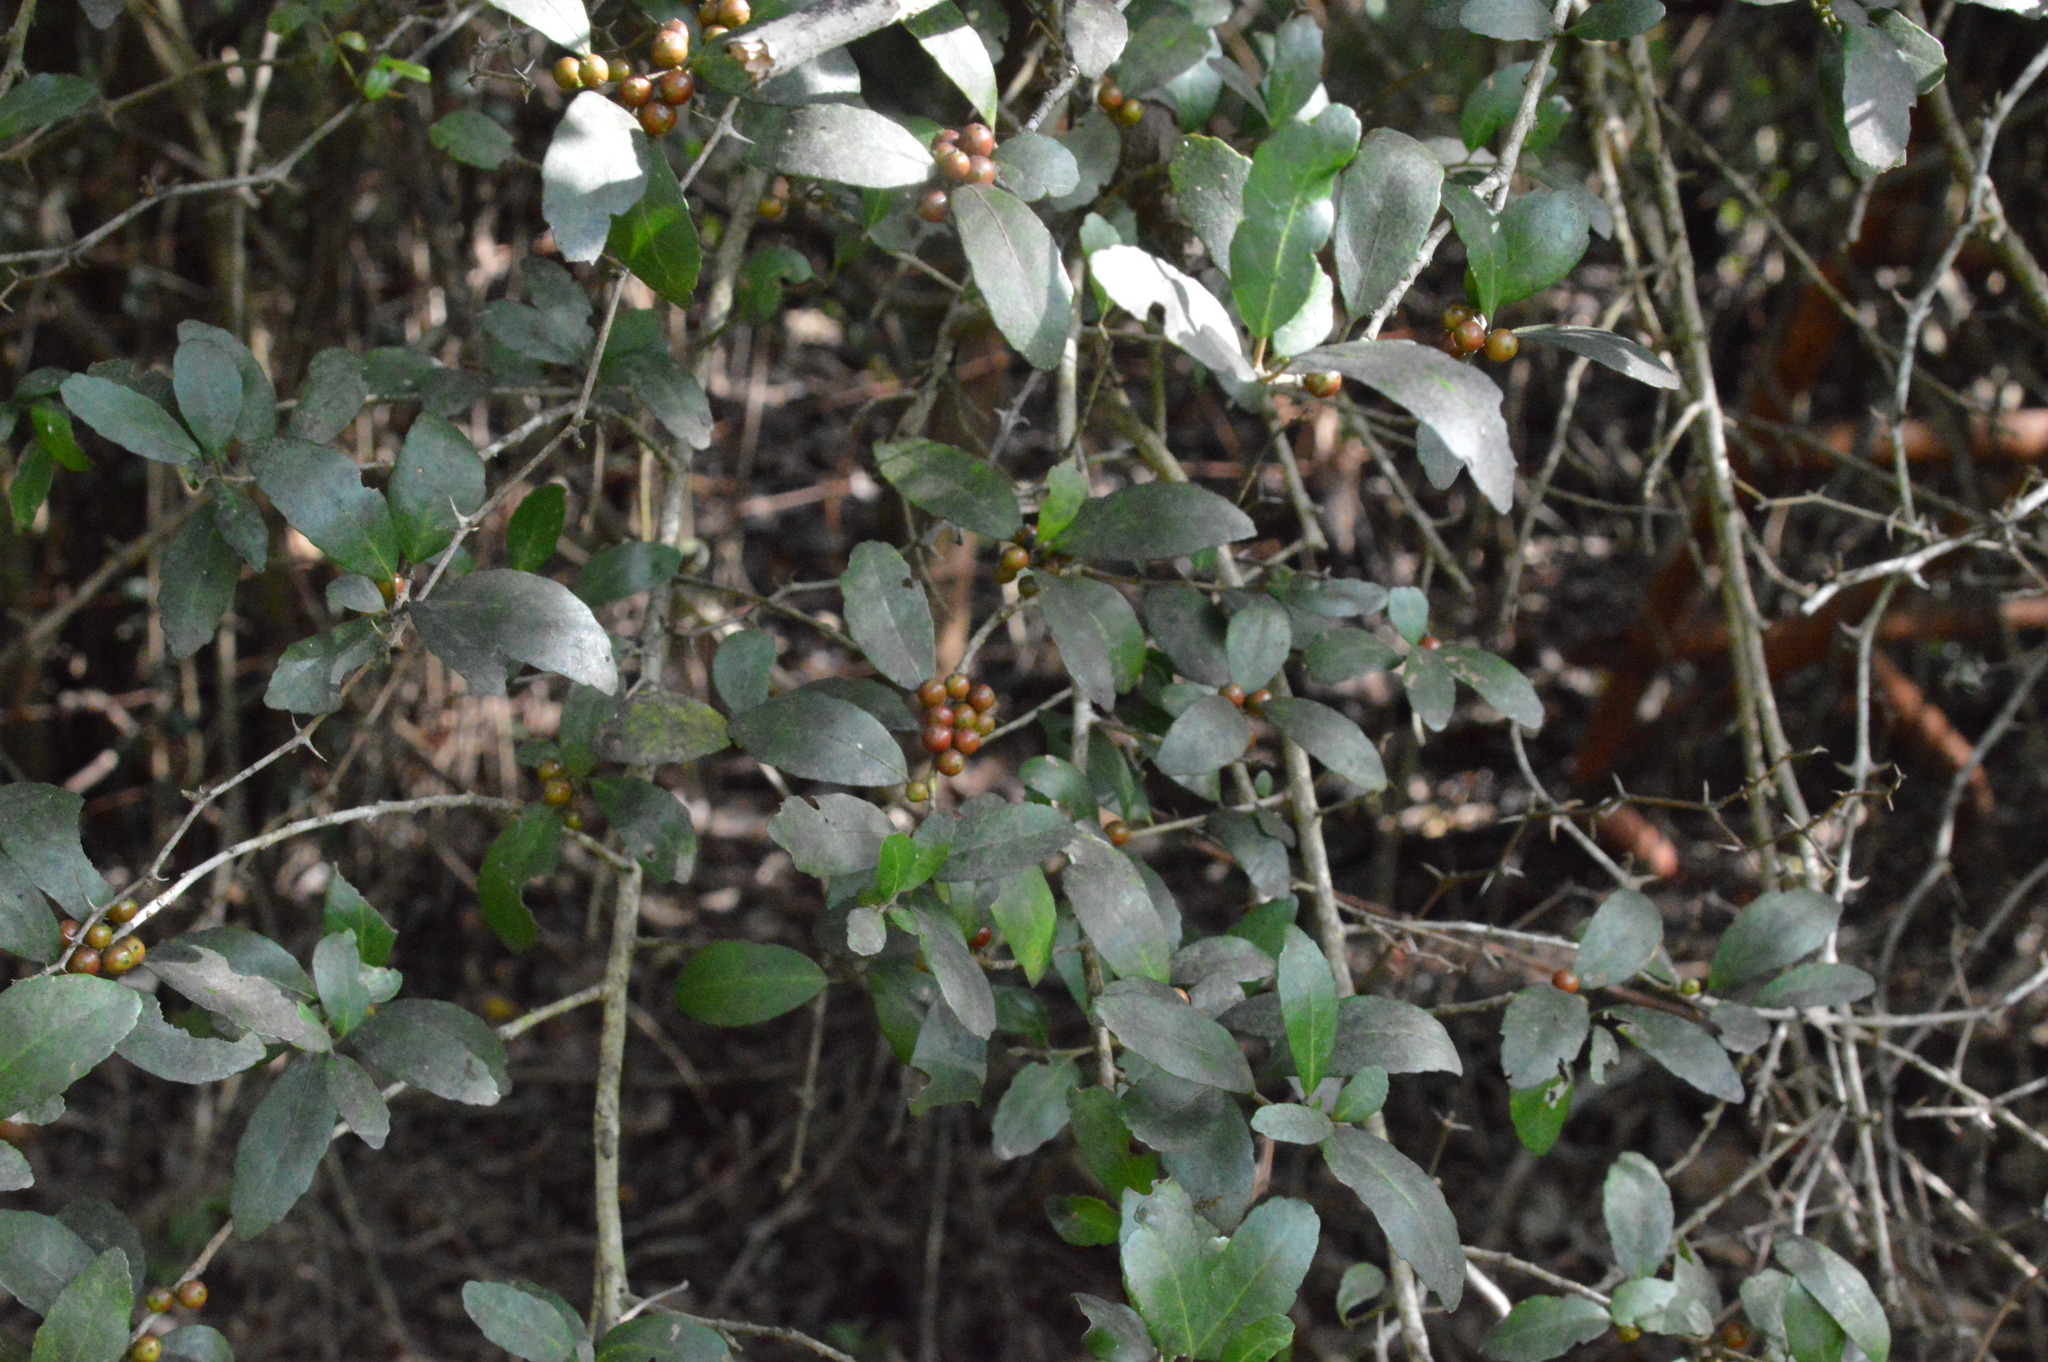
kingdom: Plantae
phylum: Tracheophyta
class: Magnoliopsida
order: Aquifoliales
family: Aquifoliaceae
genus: Ilex
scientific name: Ilex vomitoria
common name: Yaupon holly
